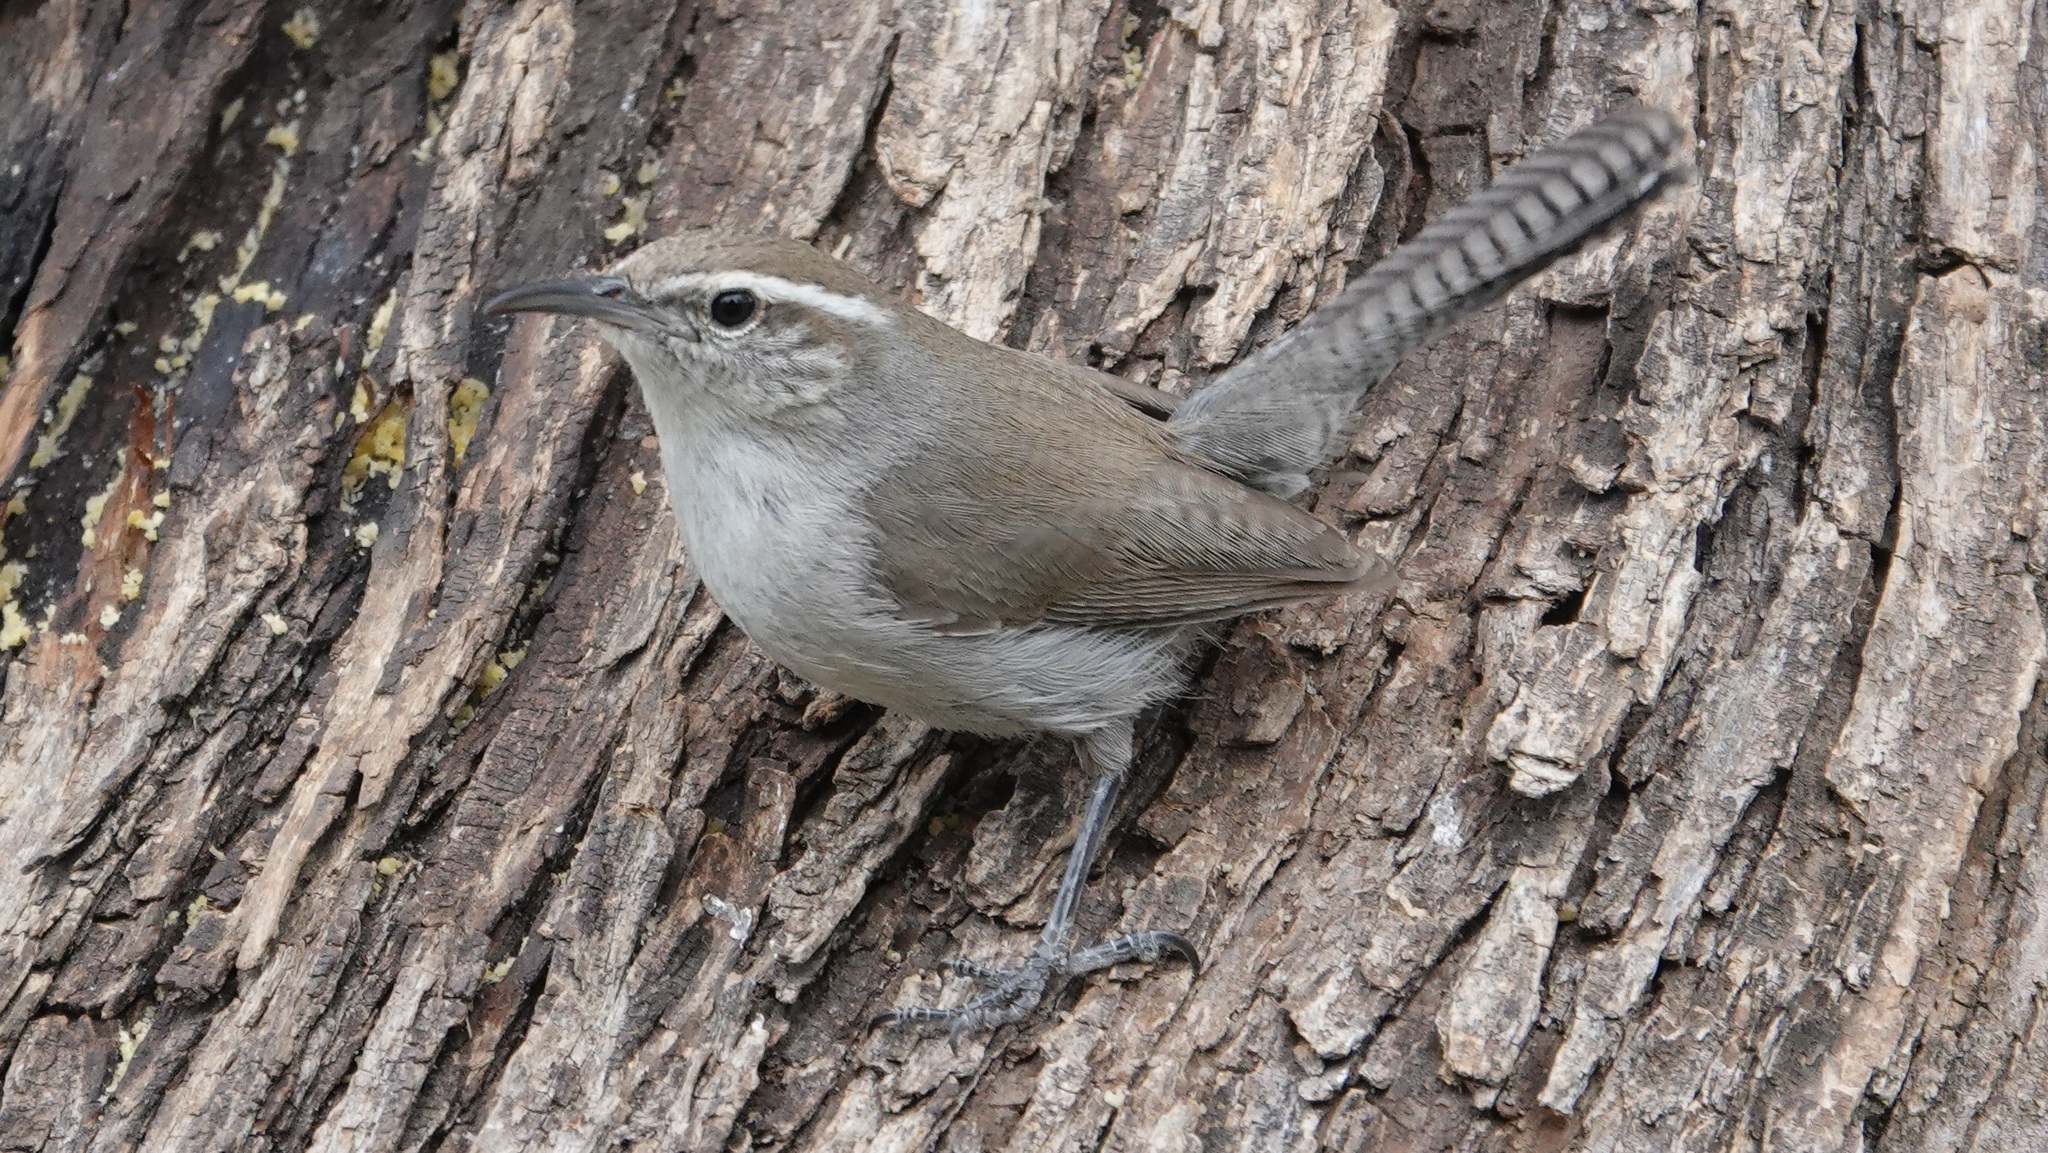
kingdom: Animalia
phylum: Chordata
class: Aves
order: Passeriformes
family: Troglodytidae
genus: Thryomanes
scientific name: Thryomanes bewickii
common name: Bewick's wren
